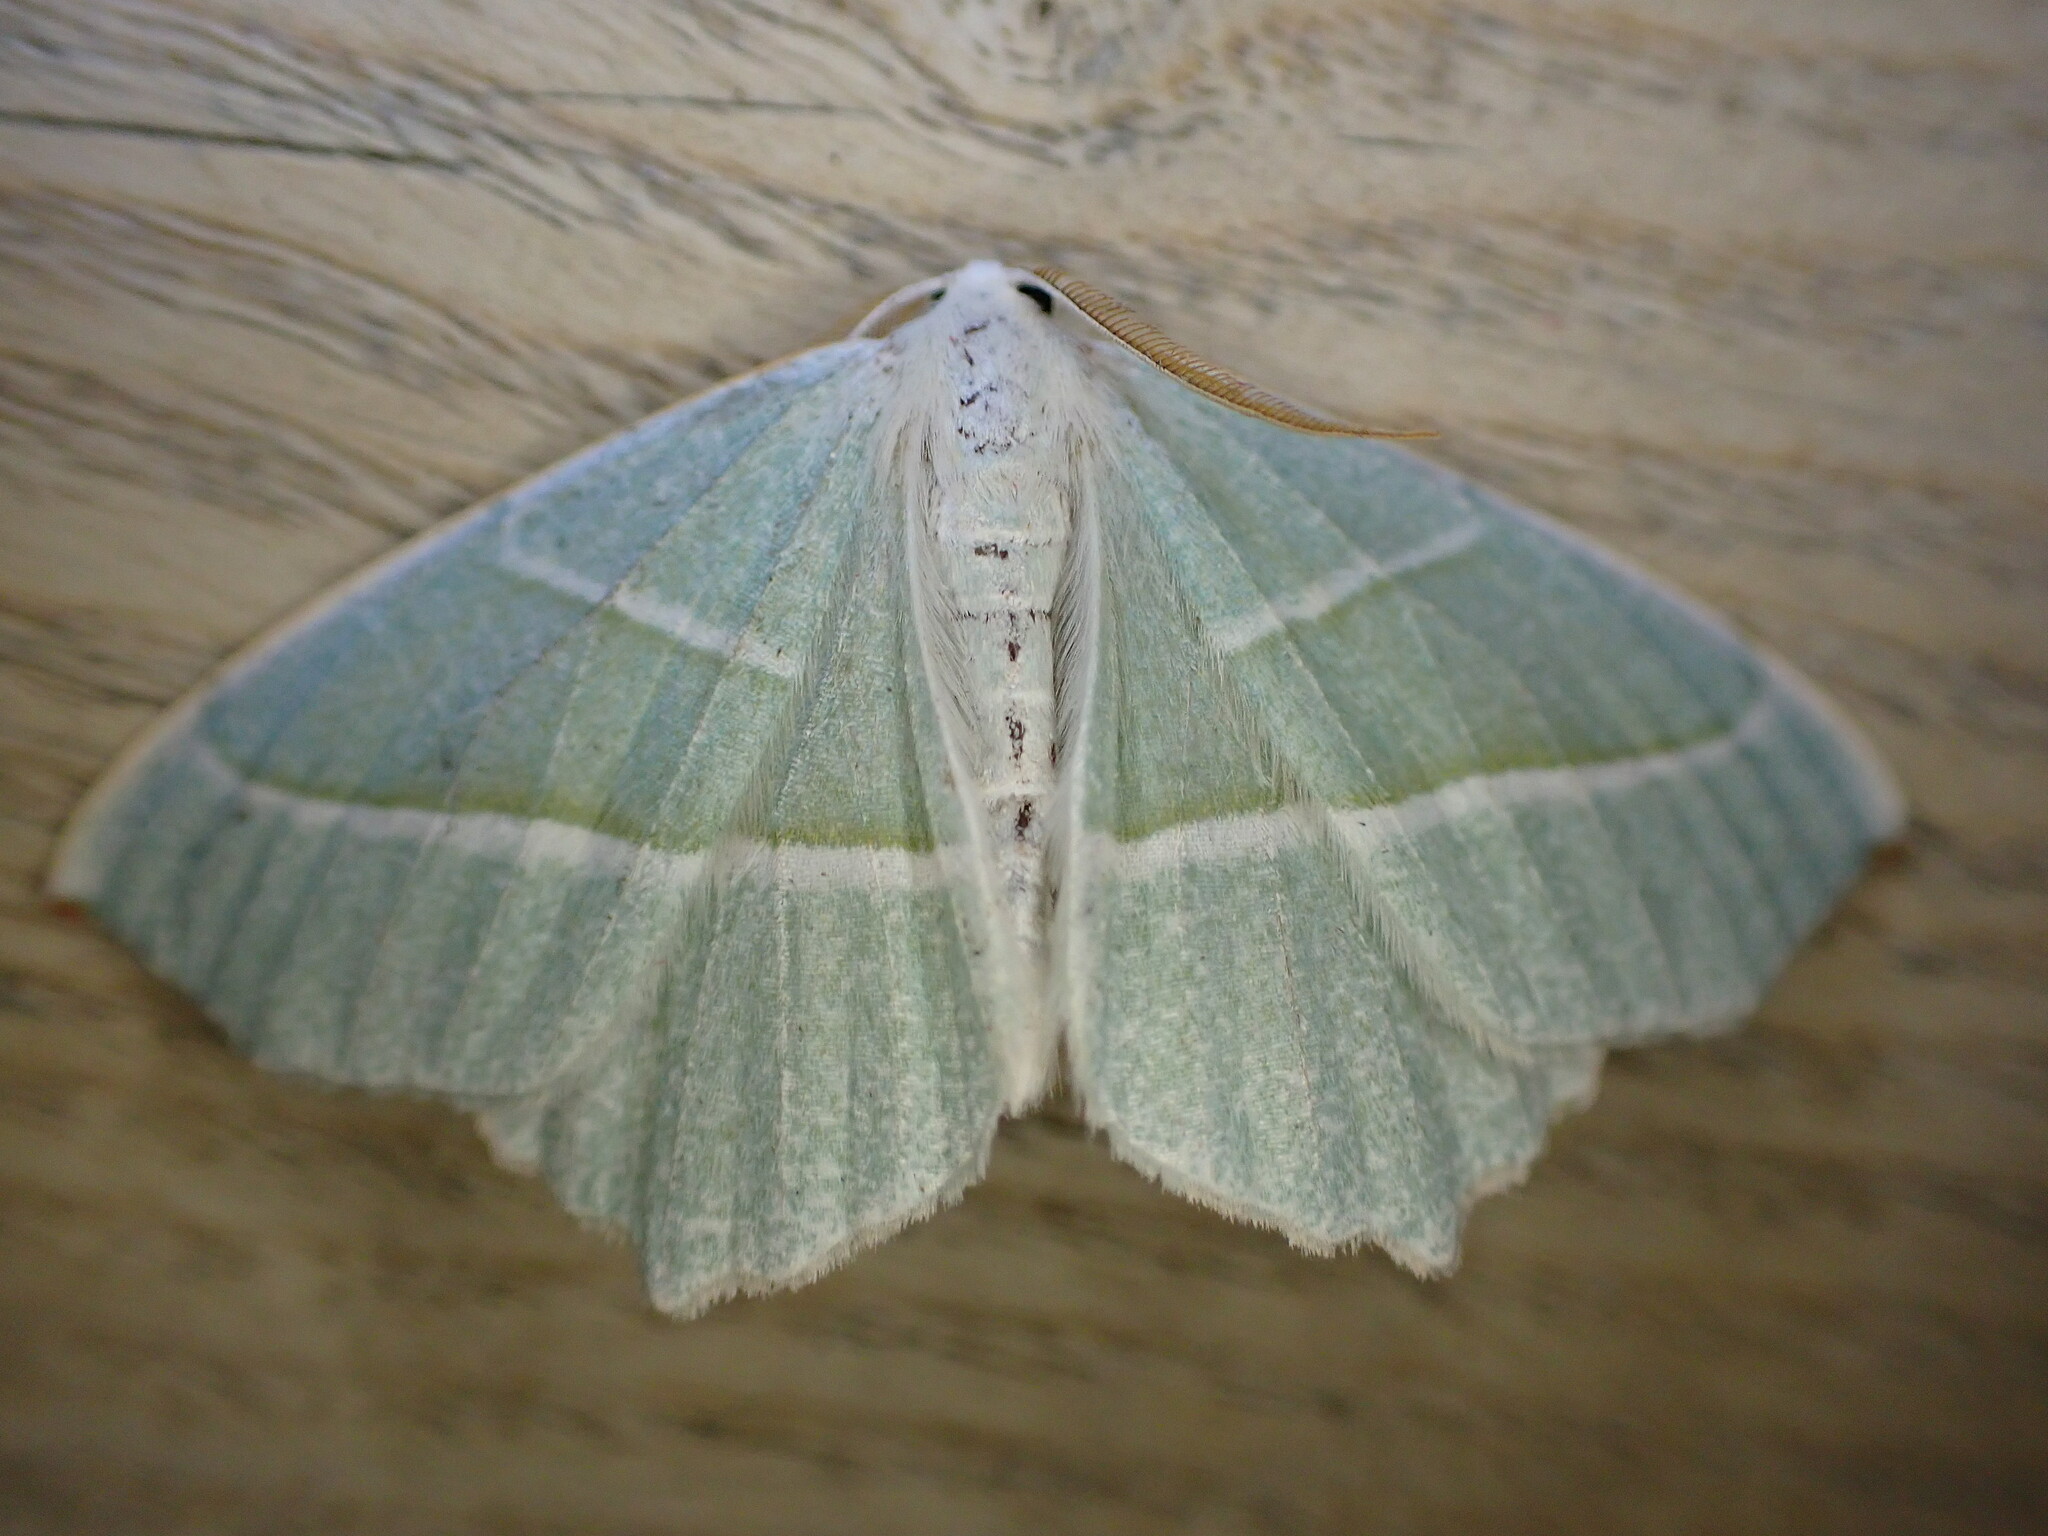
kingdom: Animalia
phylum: Arthropoda
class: Insecta
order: Lepidoptera
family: Geometridae
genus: Campaea
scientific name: Campaea margaritaria
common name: Light emerald
